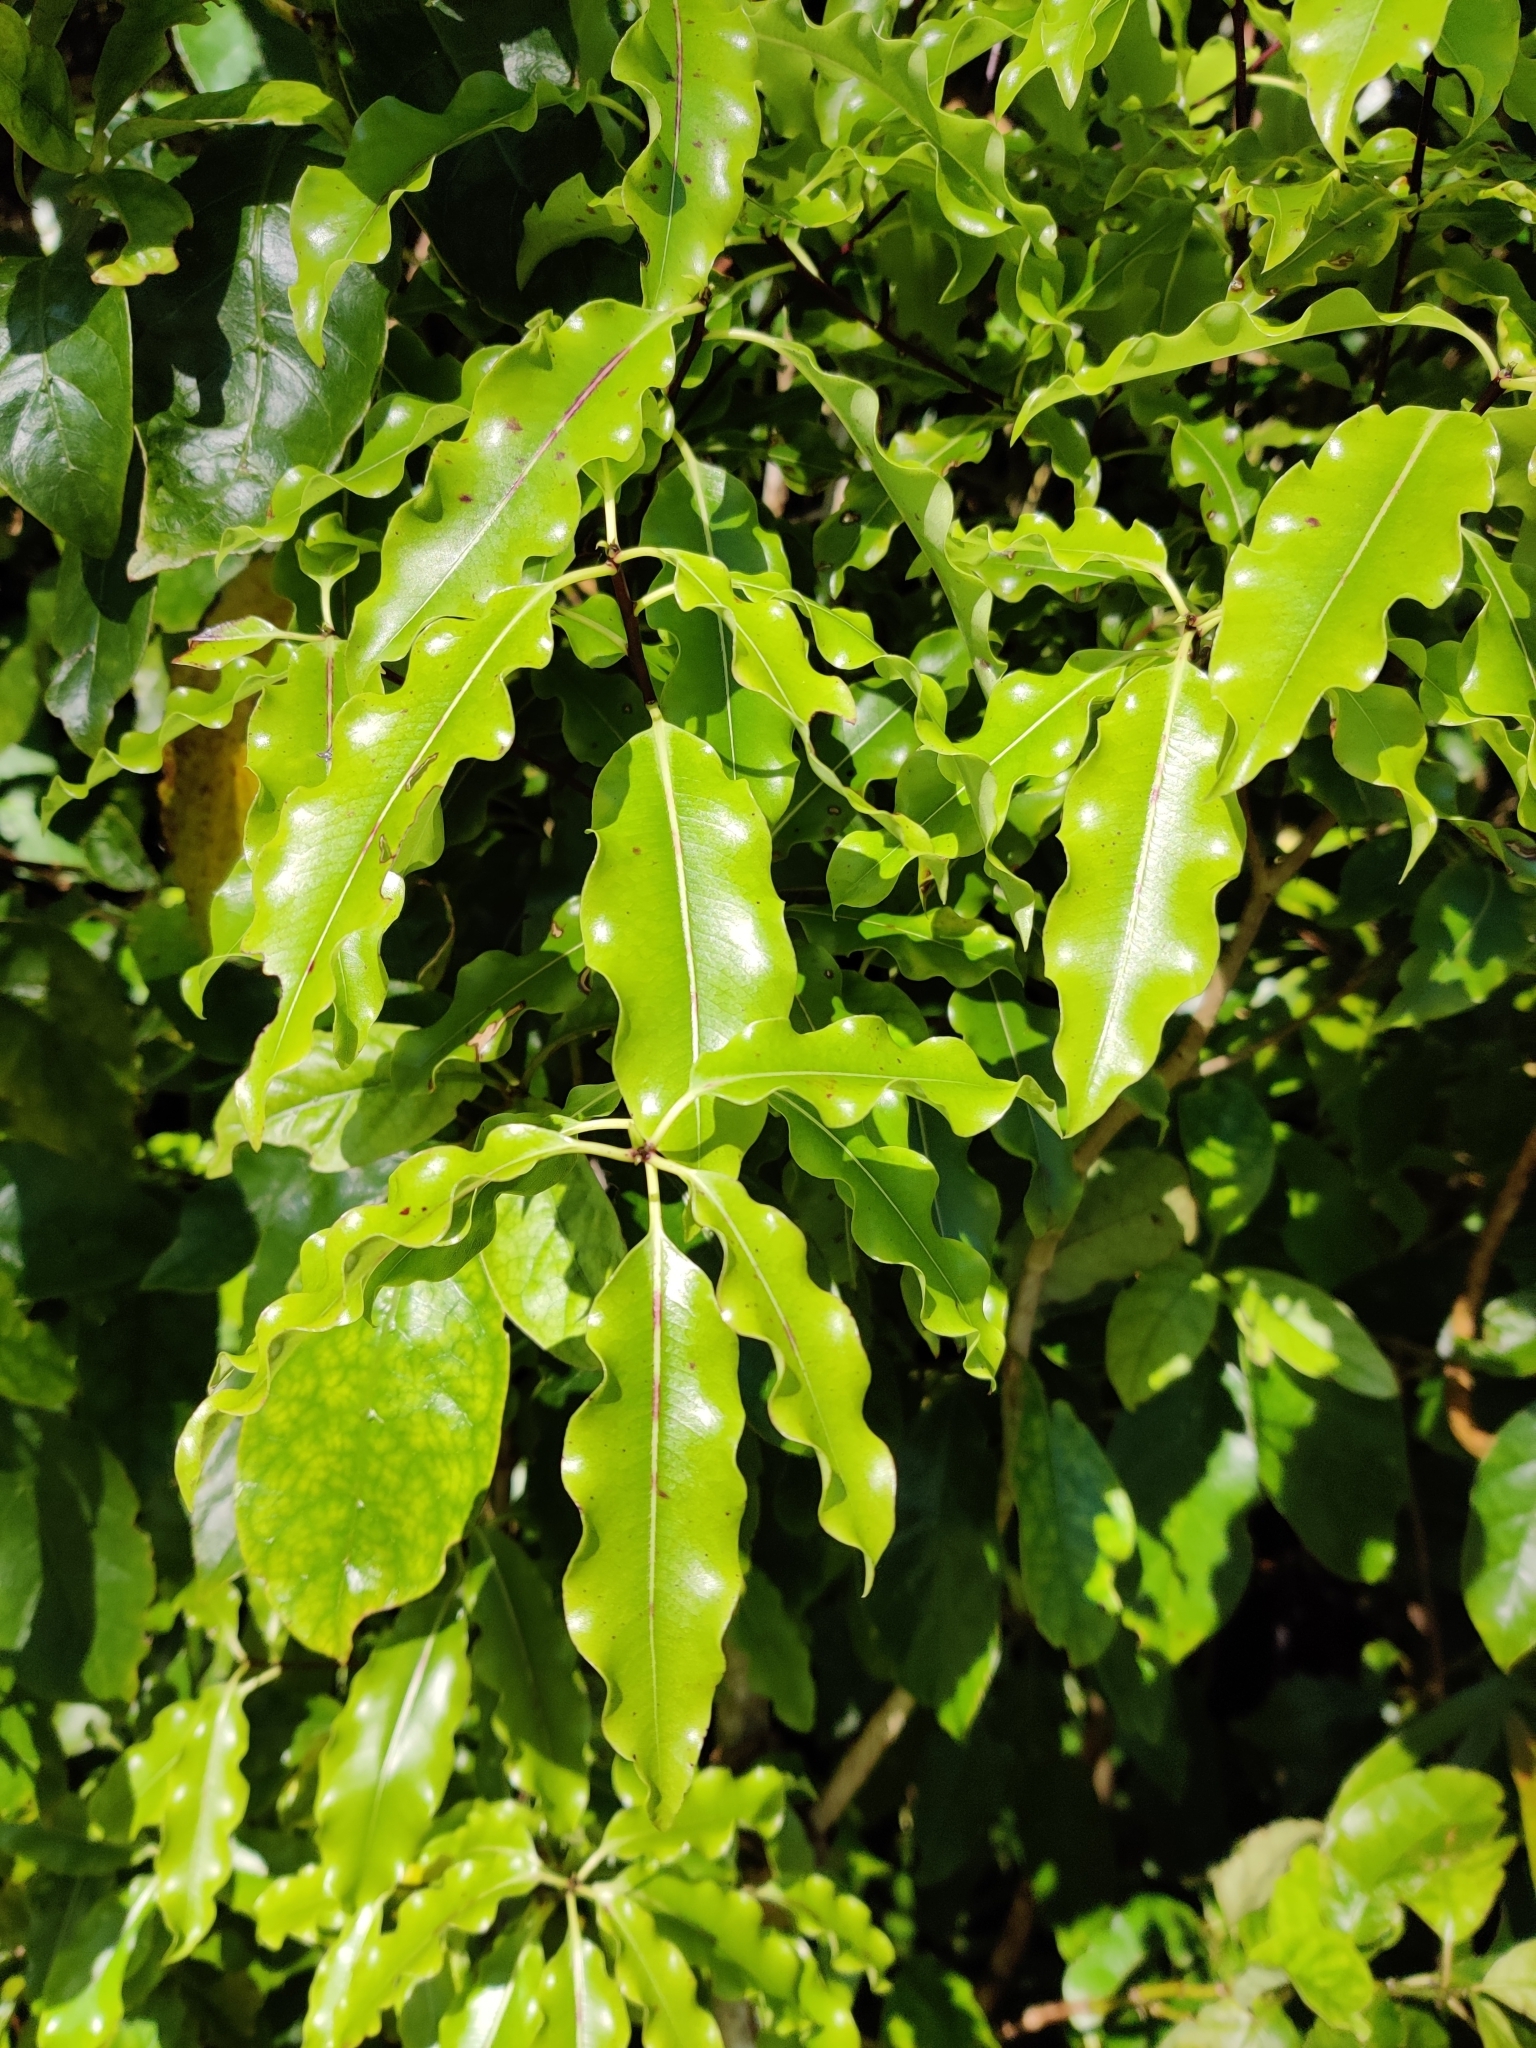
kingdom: Plantae
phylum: Tracheophyta
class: Magnoliopsida
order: Apiales
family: Pittosporaceae
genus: Pittosporum
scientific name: Pittosporum eugenioides
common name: Lemonwood
